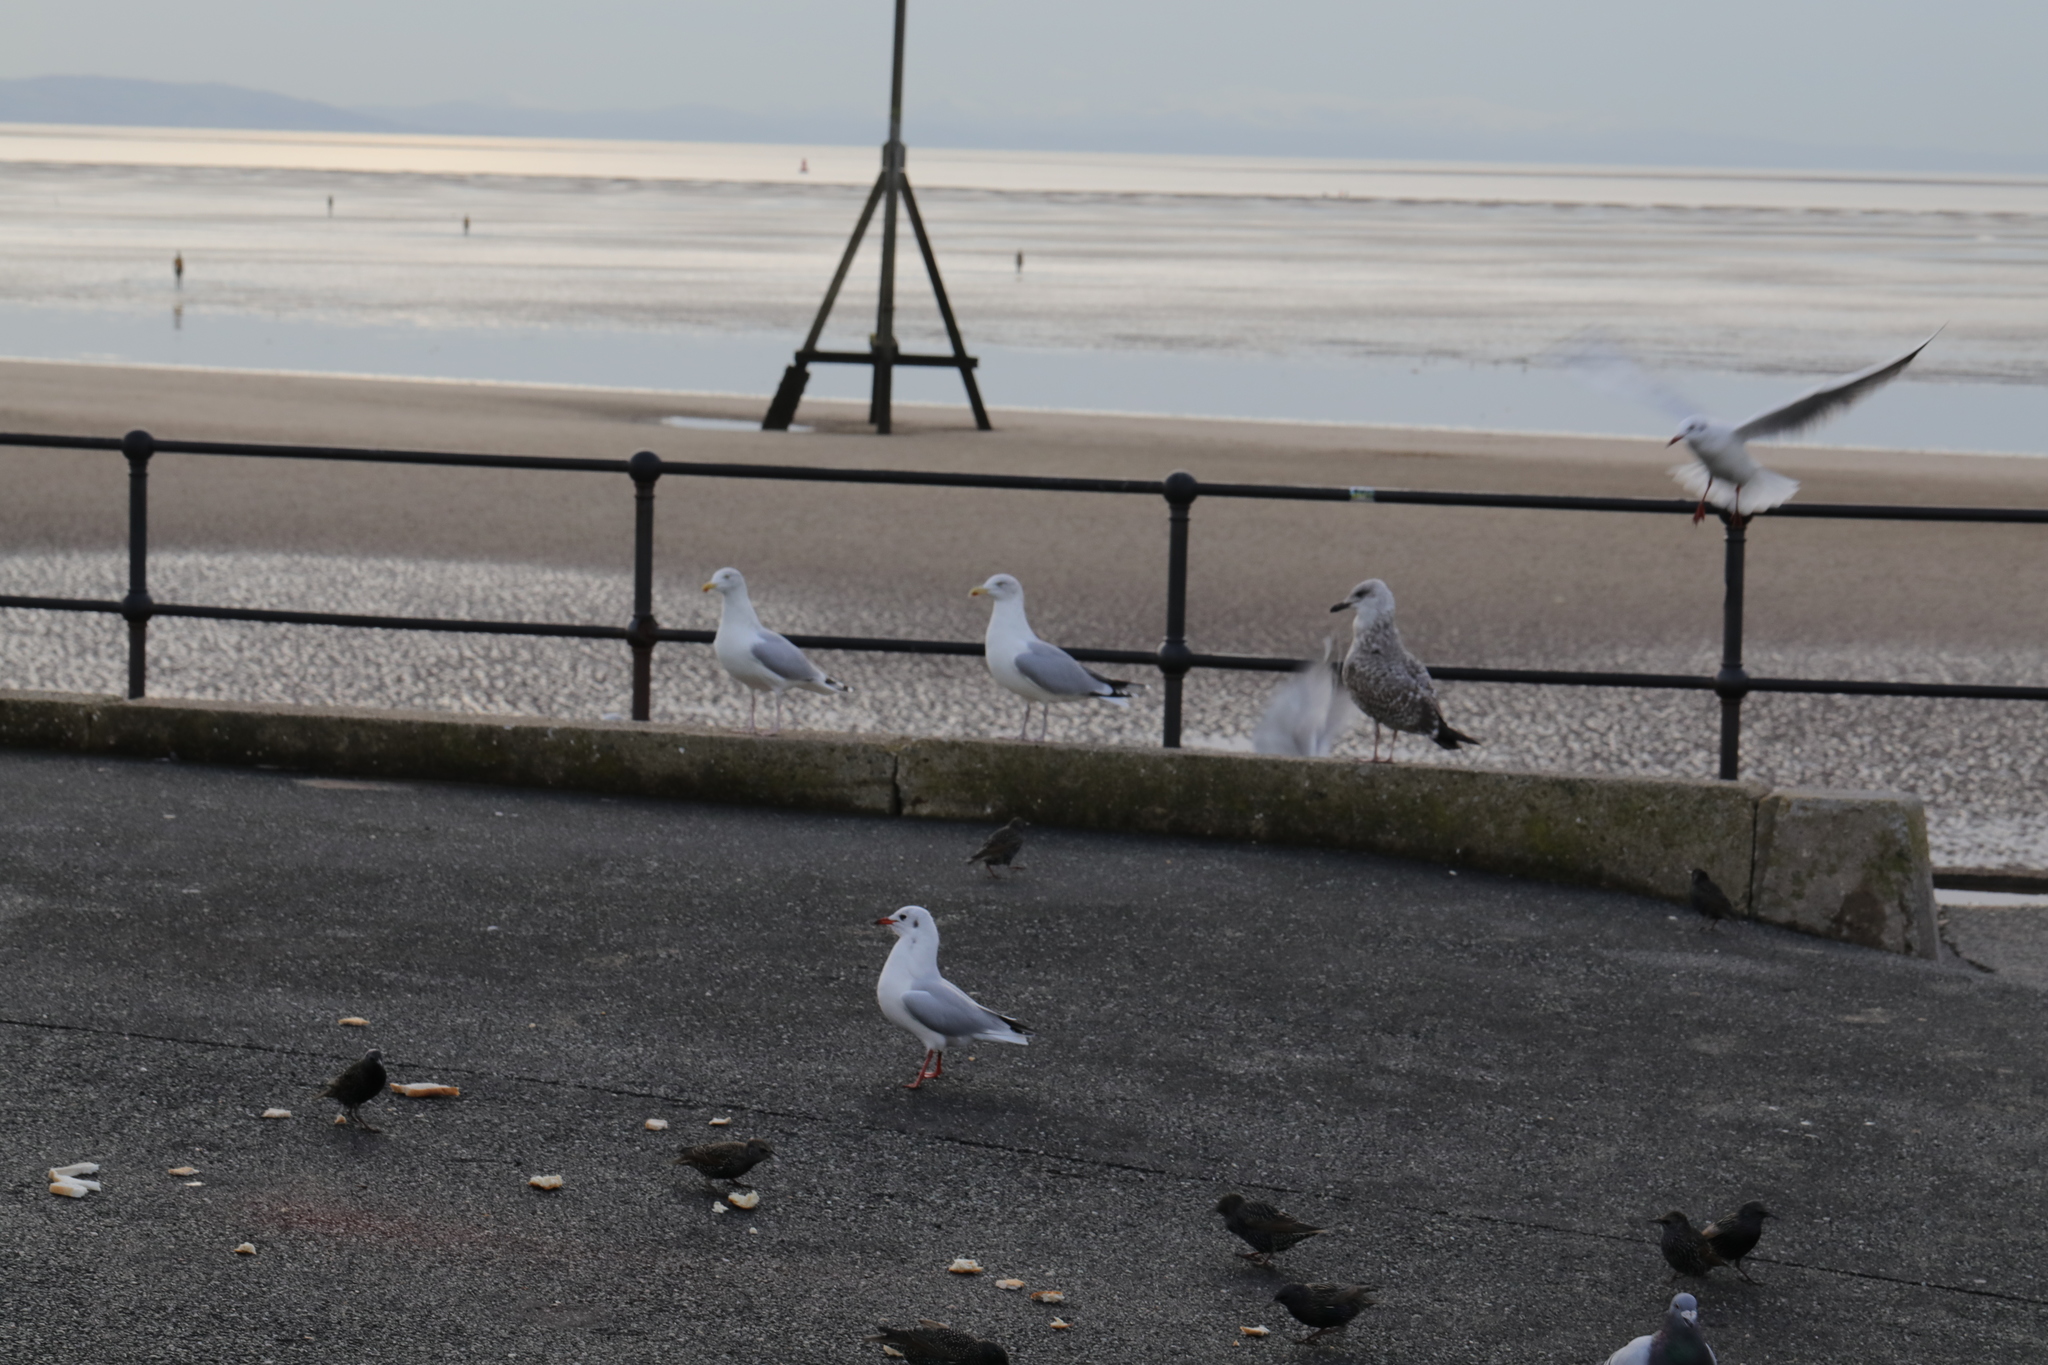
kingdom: Animalia
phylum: Chordata
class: Aves
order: Charadriiformes
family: Laridae
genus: Larus
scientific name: Larus argentatus
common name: Herring gull
